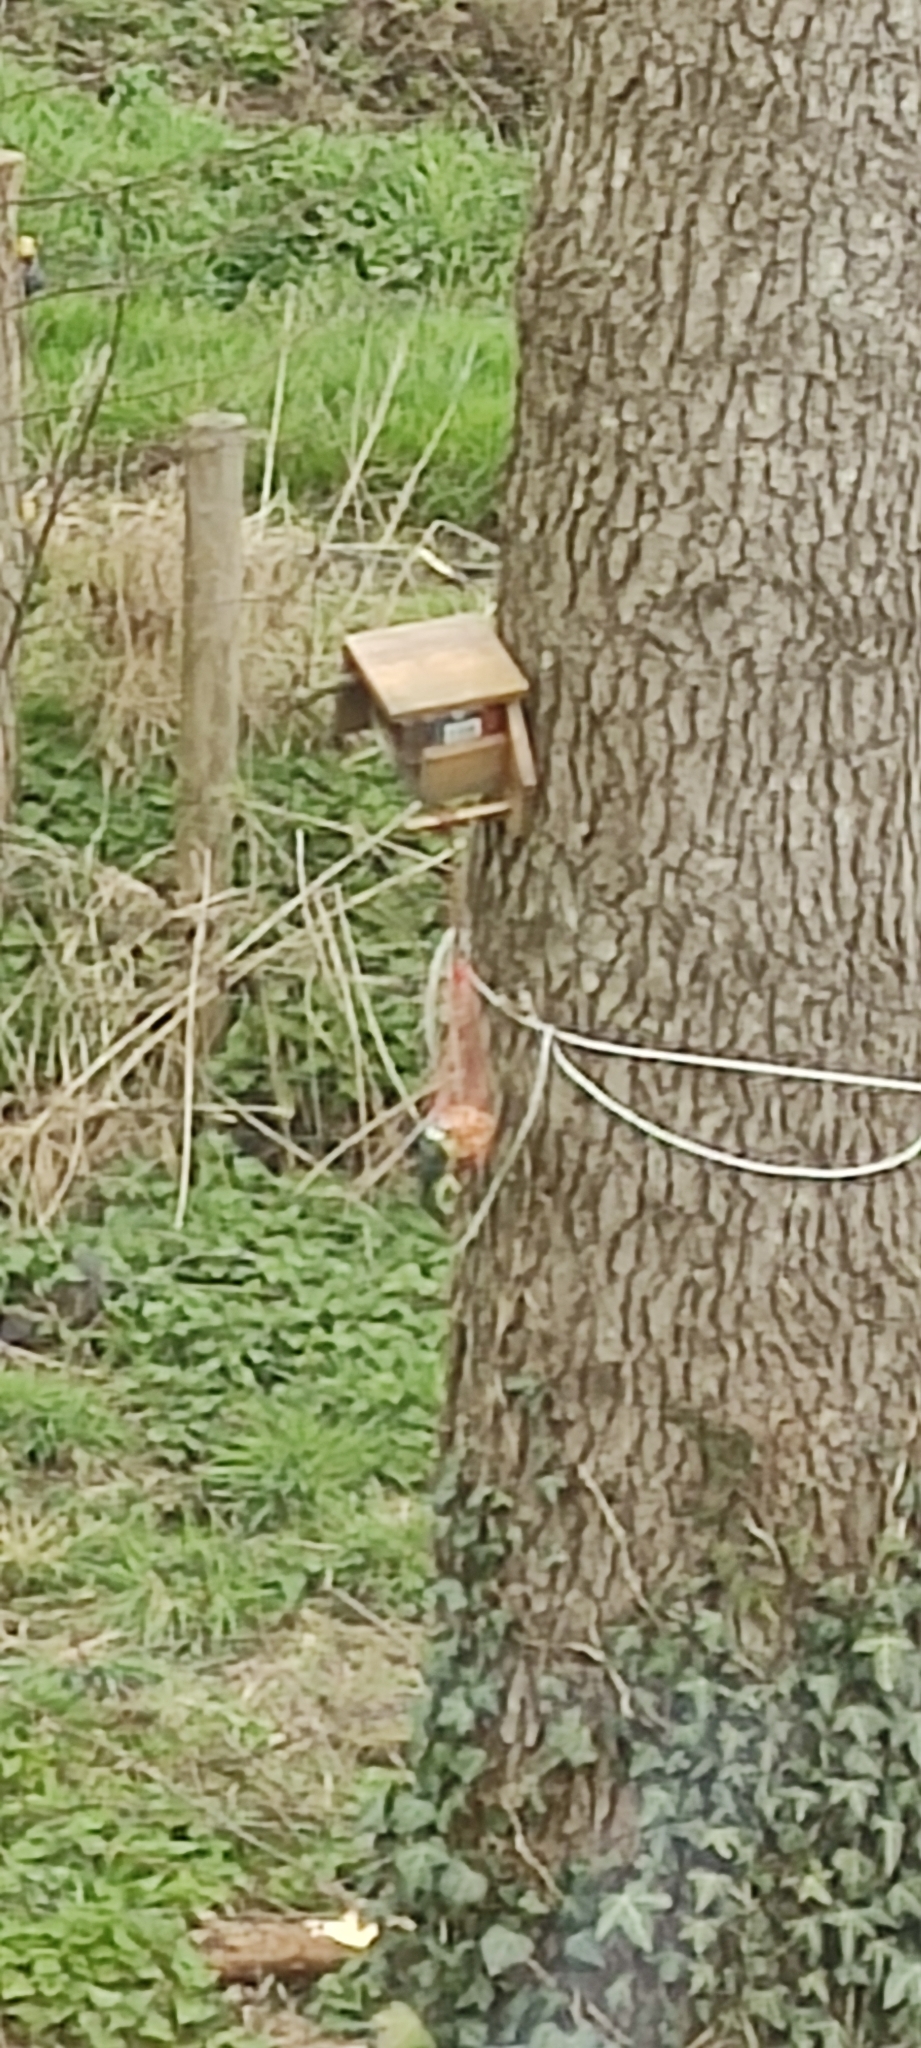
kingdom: Animalia
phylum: Chordata
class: Aves
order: Passeriformes
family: Paridae
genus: Cyanistes
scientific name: Cyanistes caeruleus
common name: Eurasian blue tit
